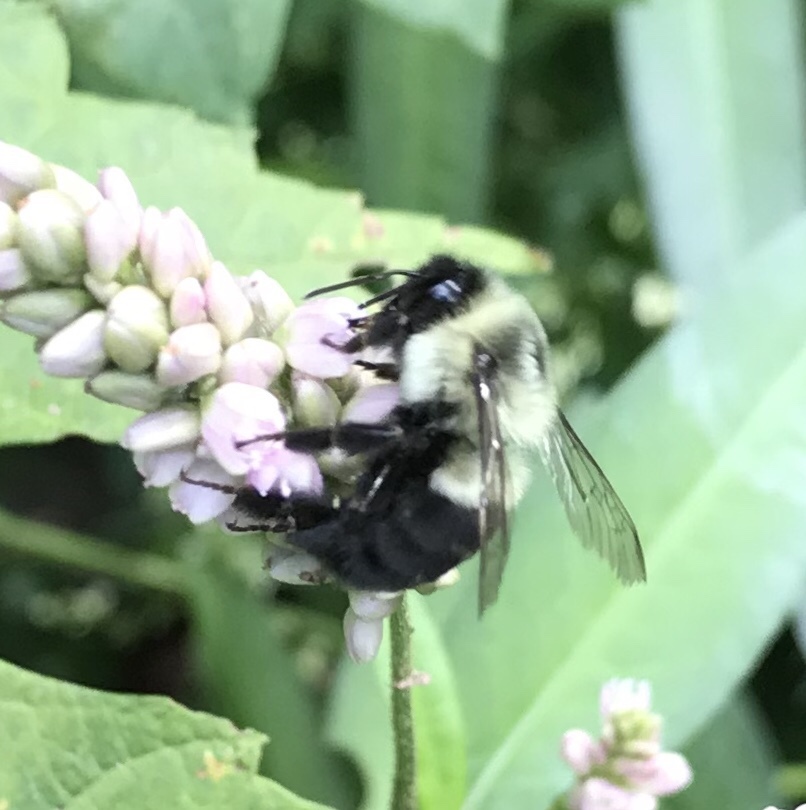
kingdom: Animalia
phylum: Arthropoda
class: Insecta
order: Hymenoptera
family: Apidae
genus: Bombus
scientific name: Bombus impatiens
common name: Common eastern bumble bee
